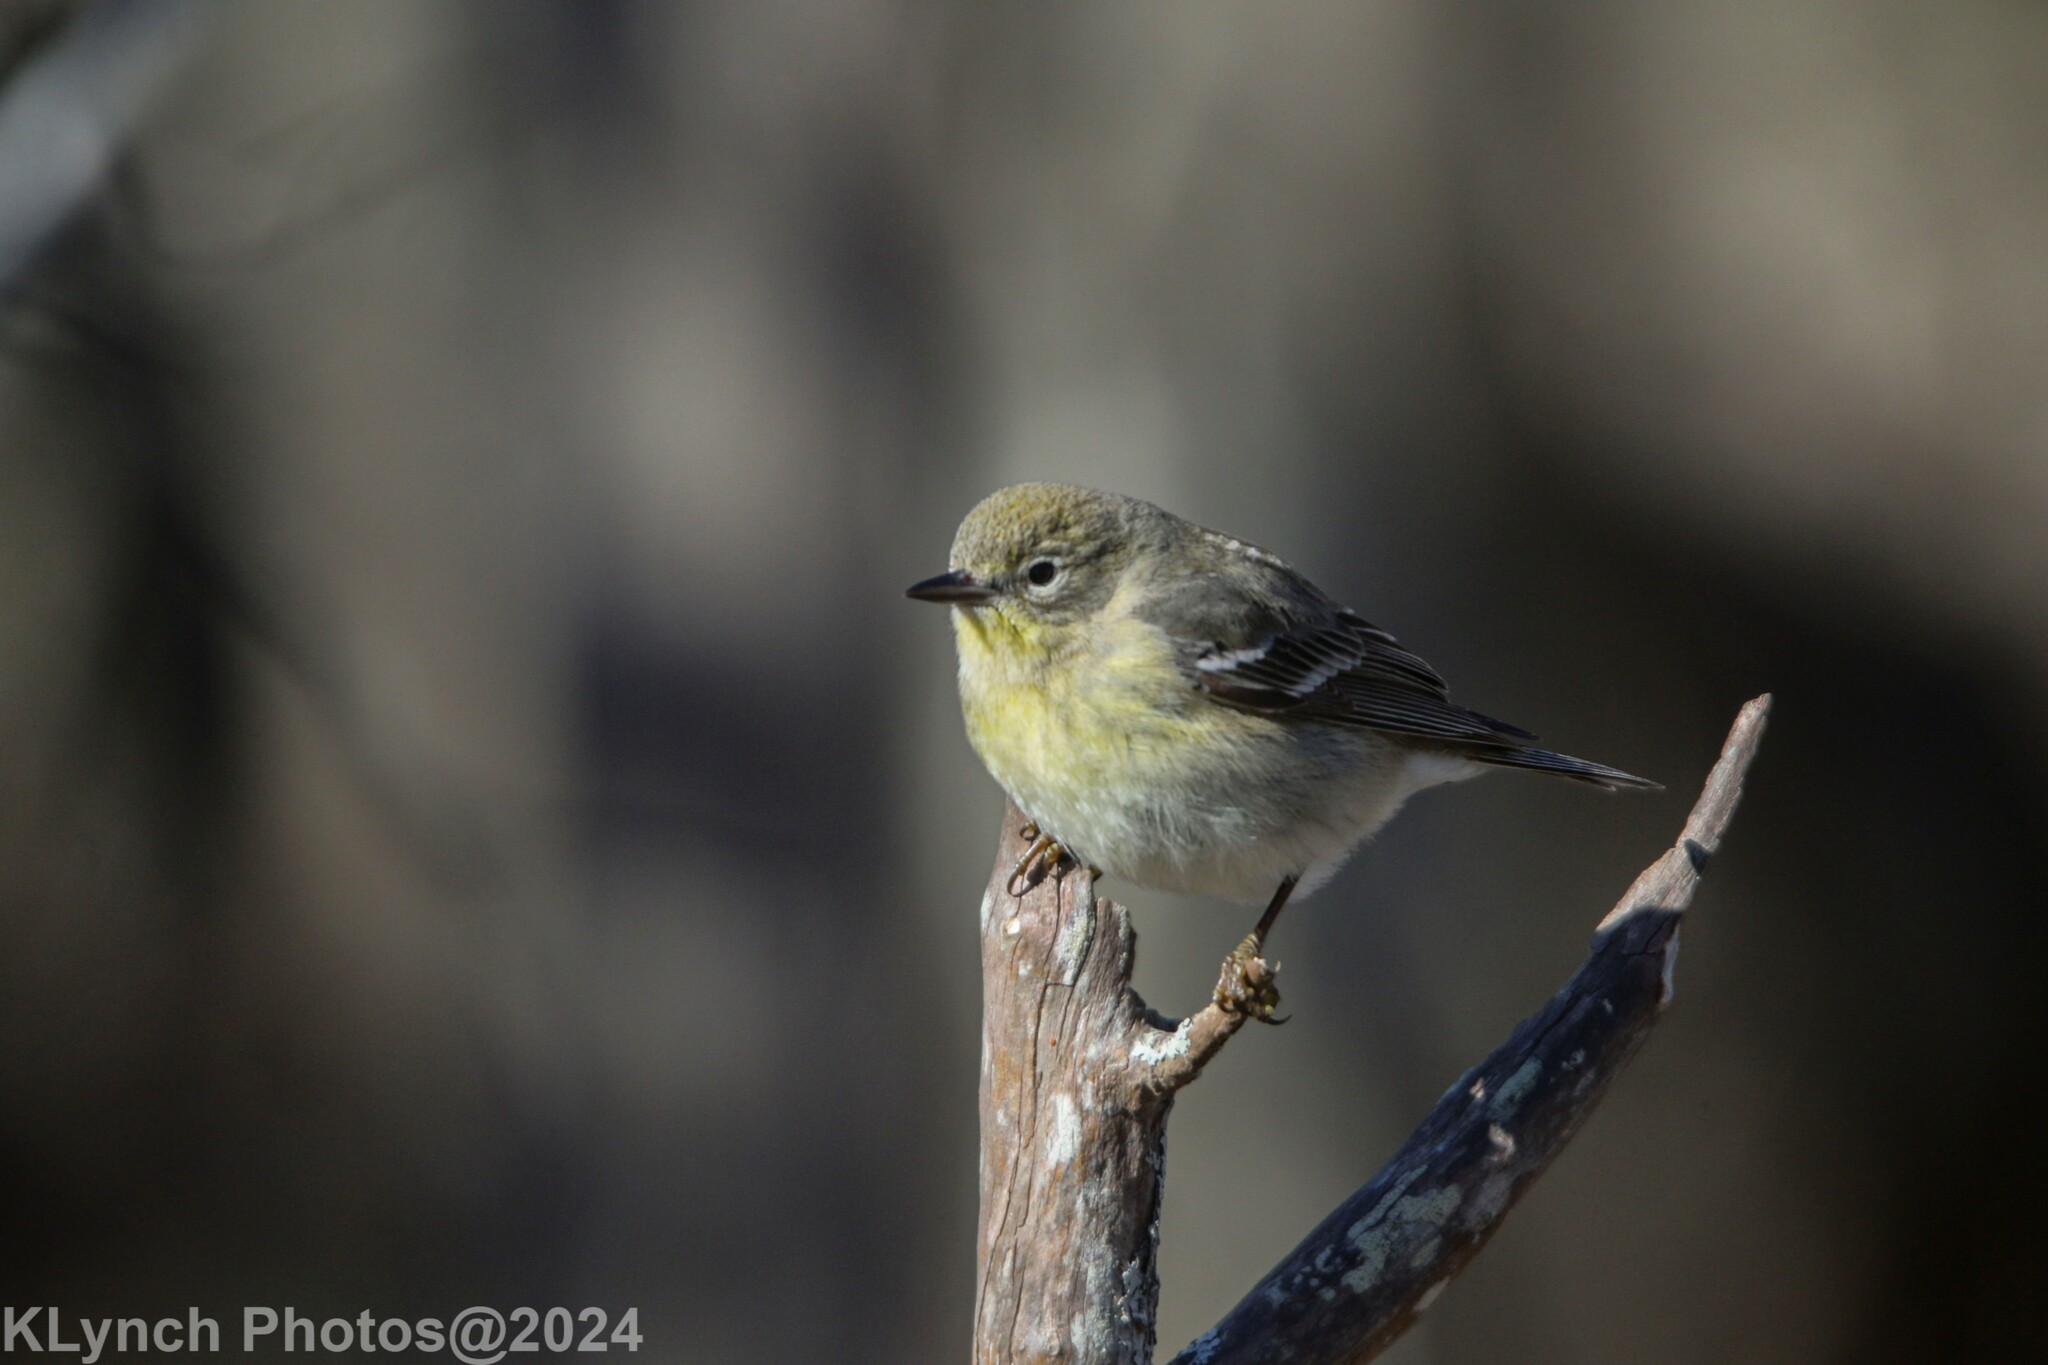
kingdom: Animalia
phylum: Chordata
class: Aves
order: Passeriformes
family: Parulidae
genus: Setophaga
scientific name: Setophaga pinus
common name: Pine warbler
